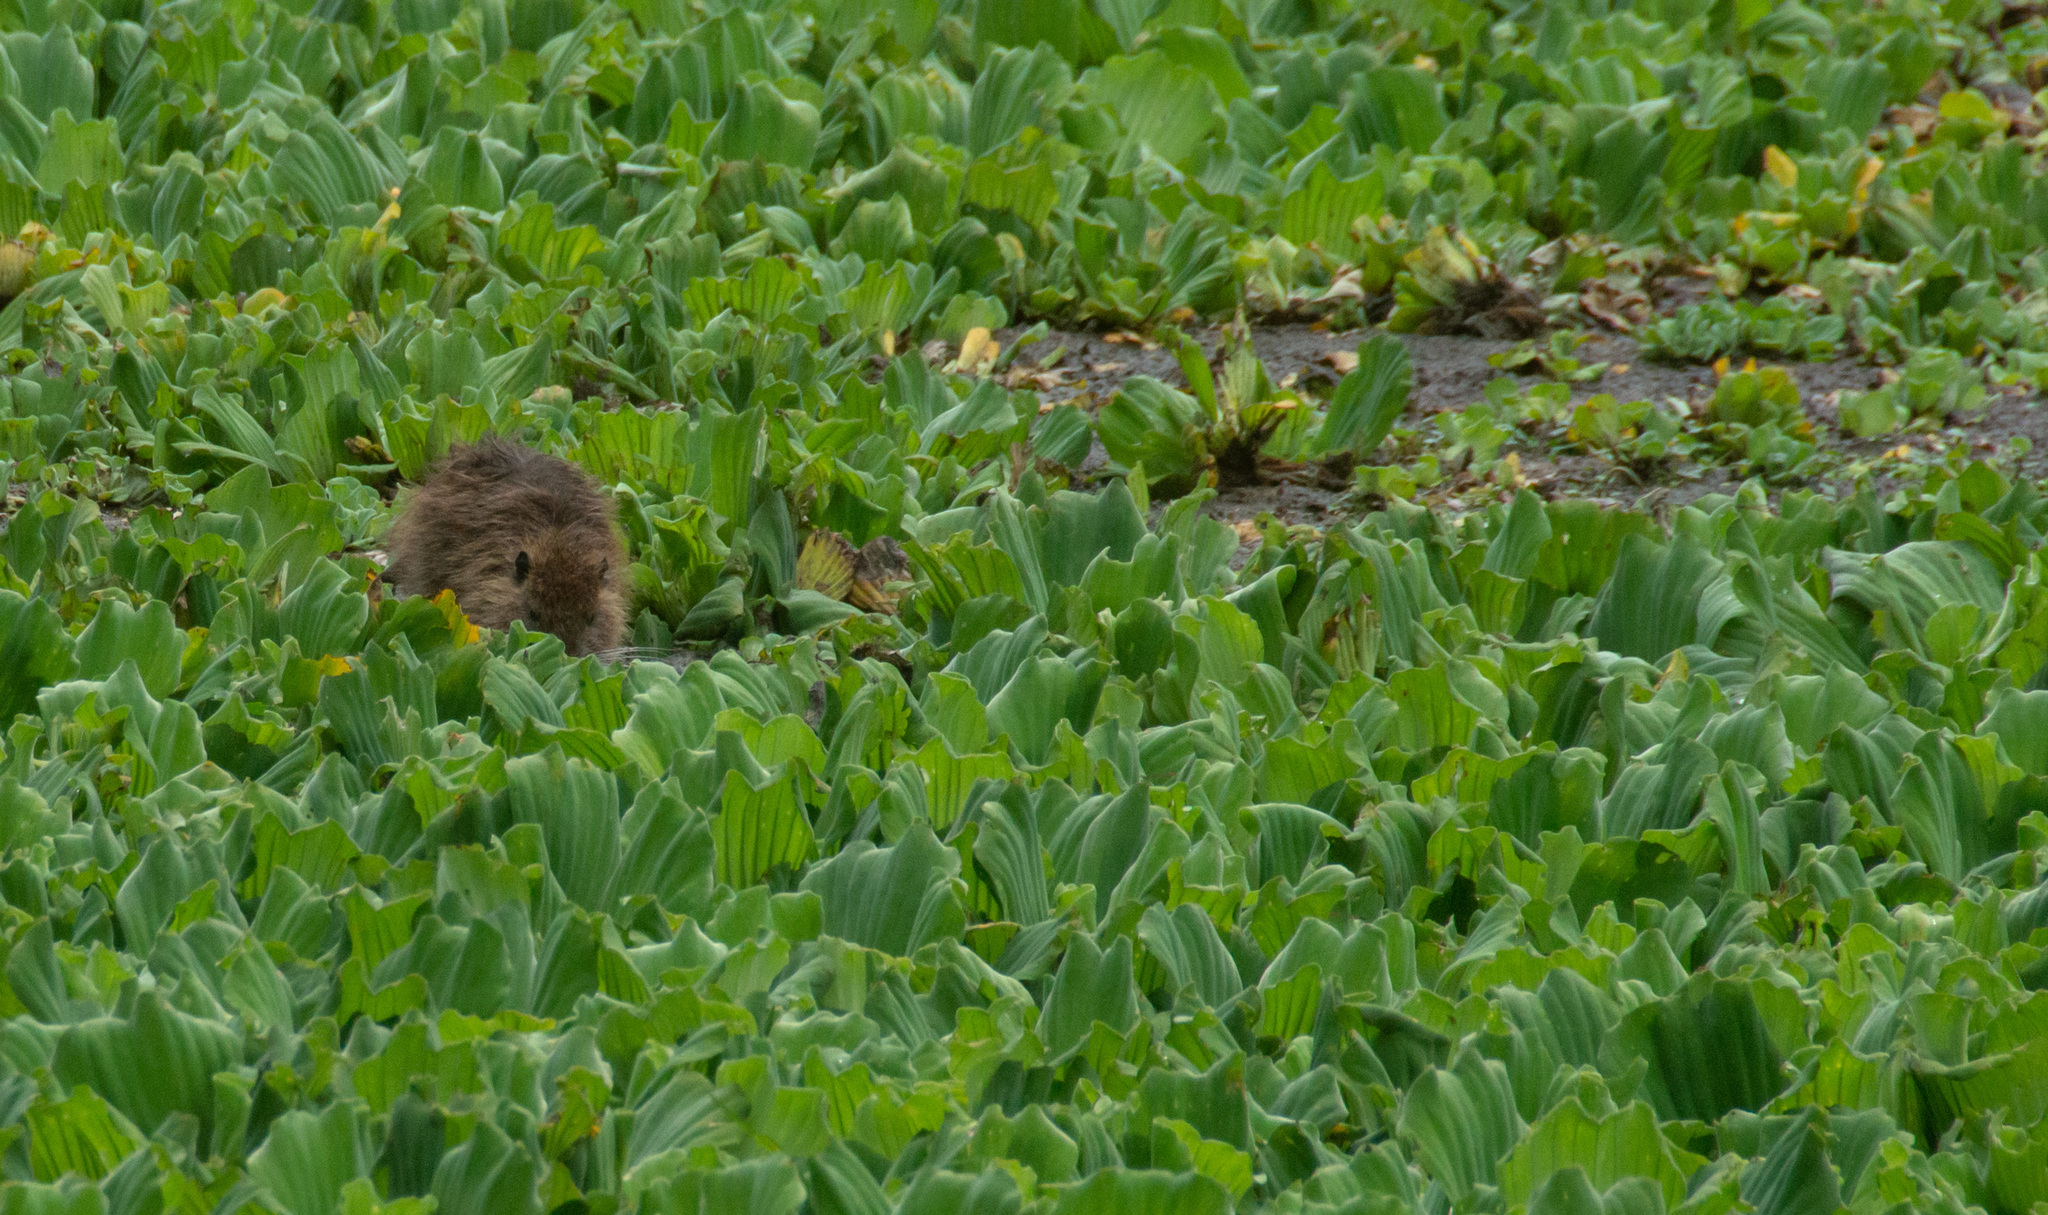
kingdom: Animalia
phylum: Chordata
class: Mammalia
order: Rodentia
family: Myocastoridae
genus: Myocastor
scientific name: Myocastor coypus
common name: Coypu
